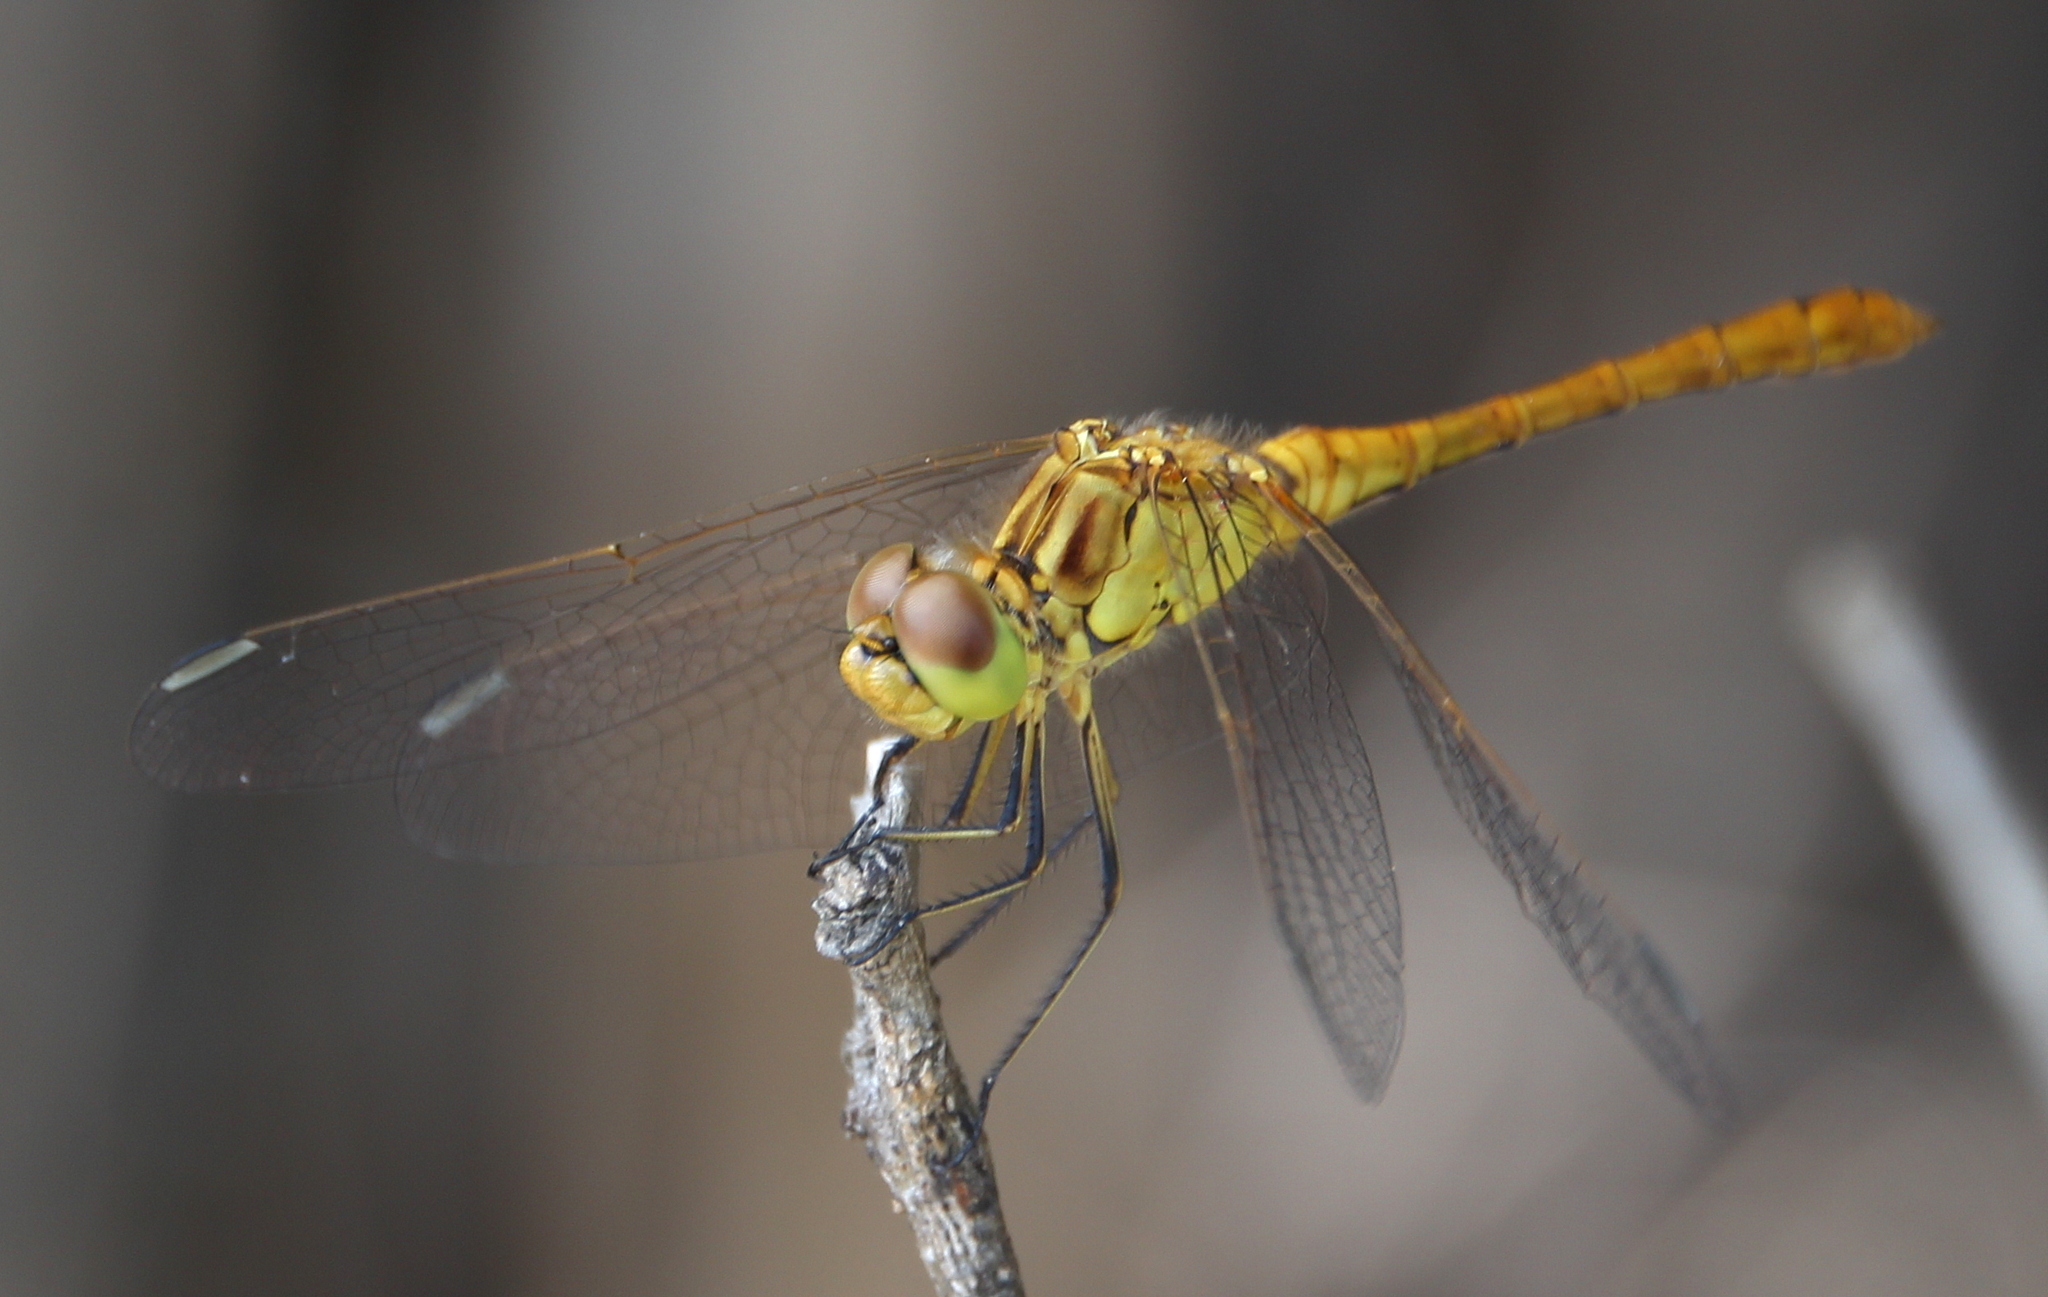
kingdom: Animalia
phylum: Arthropoda
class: Insecta
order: Odonata
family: Libellulidae
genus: Sympetrum
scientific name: Sympetrum meridionale
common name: Southern darter
